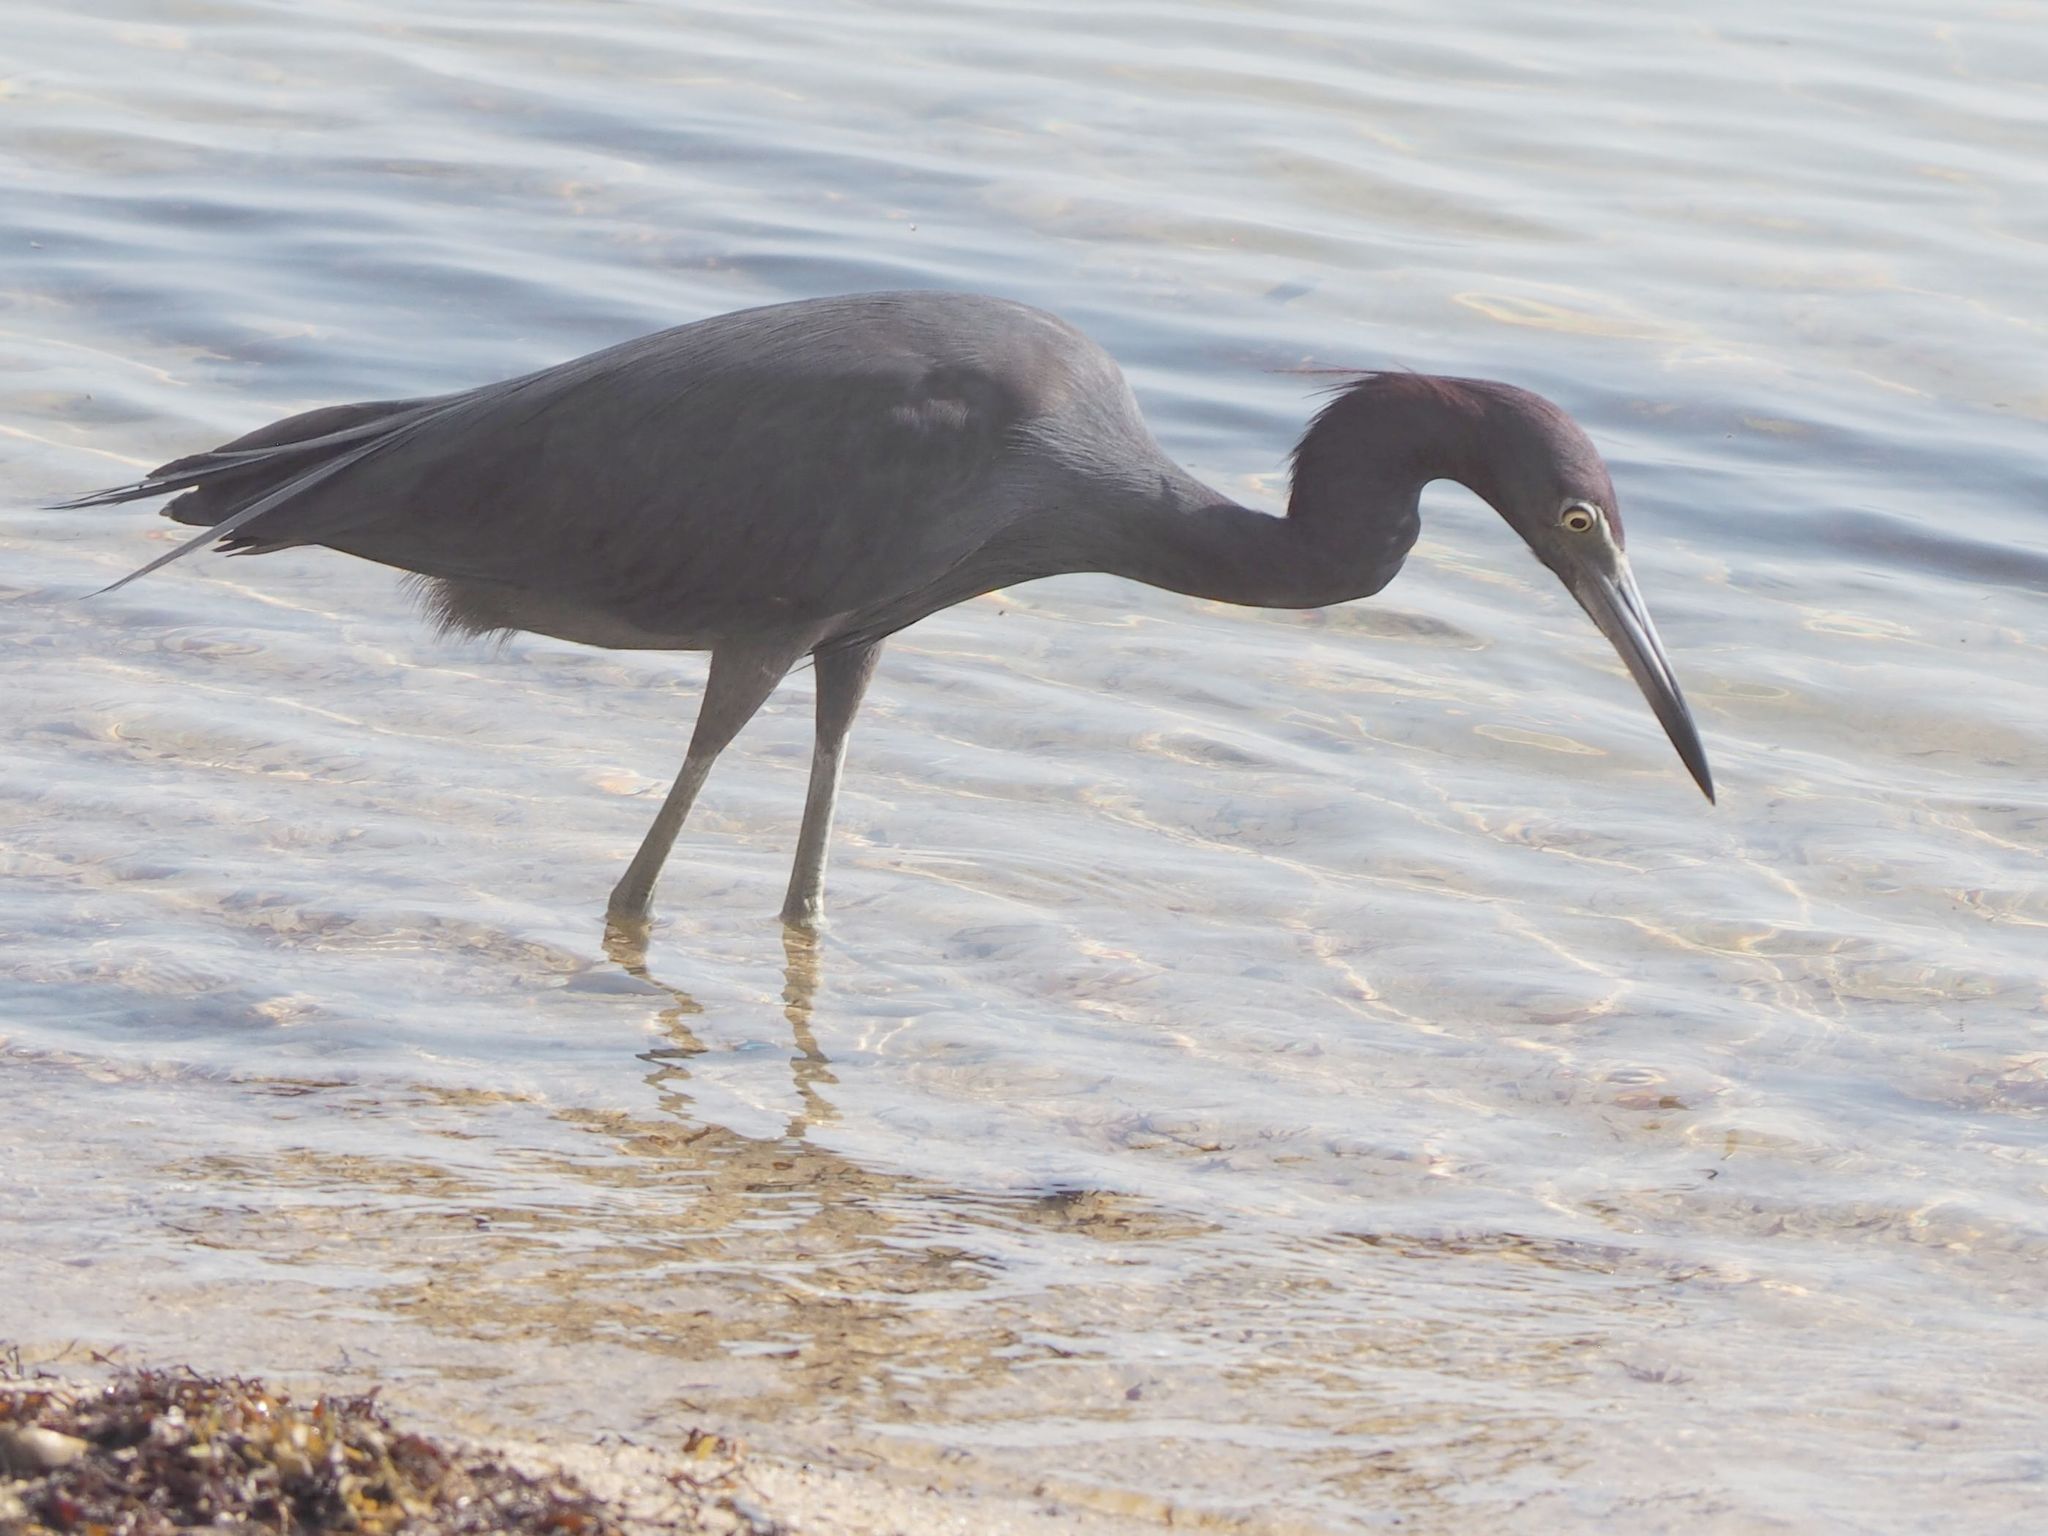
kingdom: Animalia
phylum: Chordata
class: Aves
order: Pelecaniformes
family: Ardeidae
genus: Egretta
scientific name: Egretta caerulea
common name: Little blue heron
